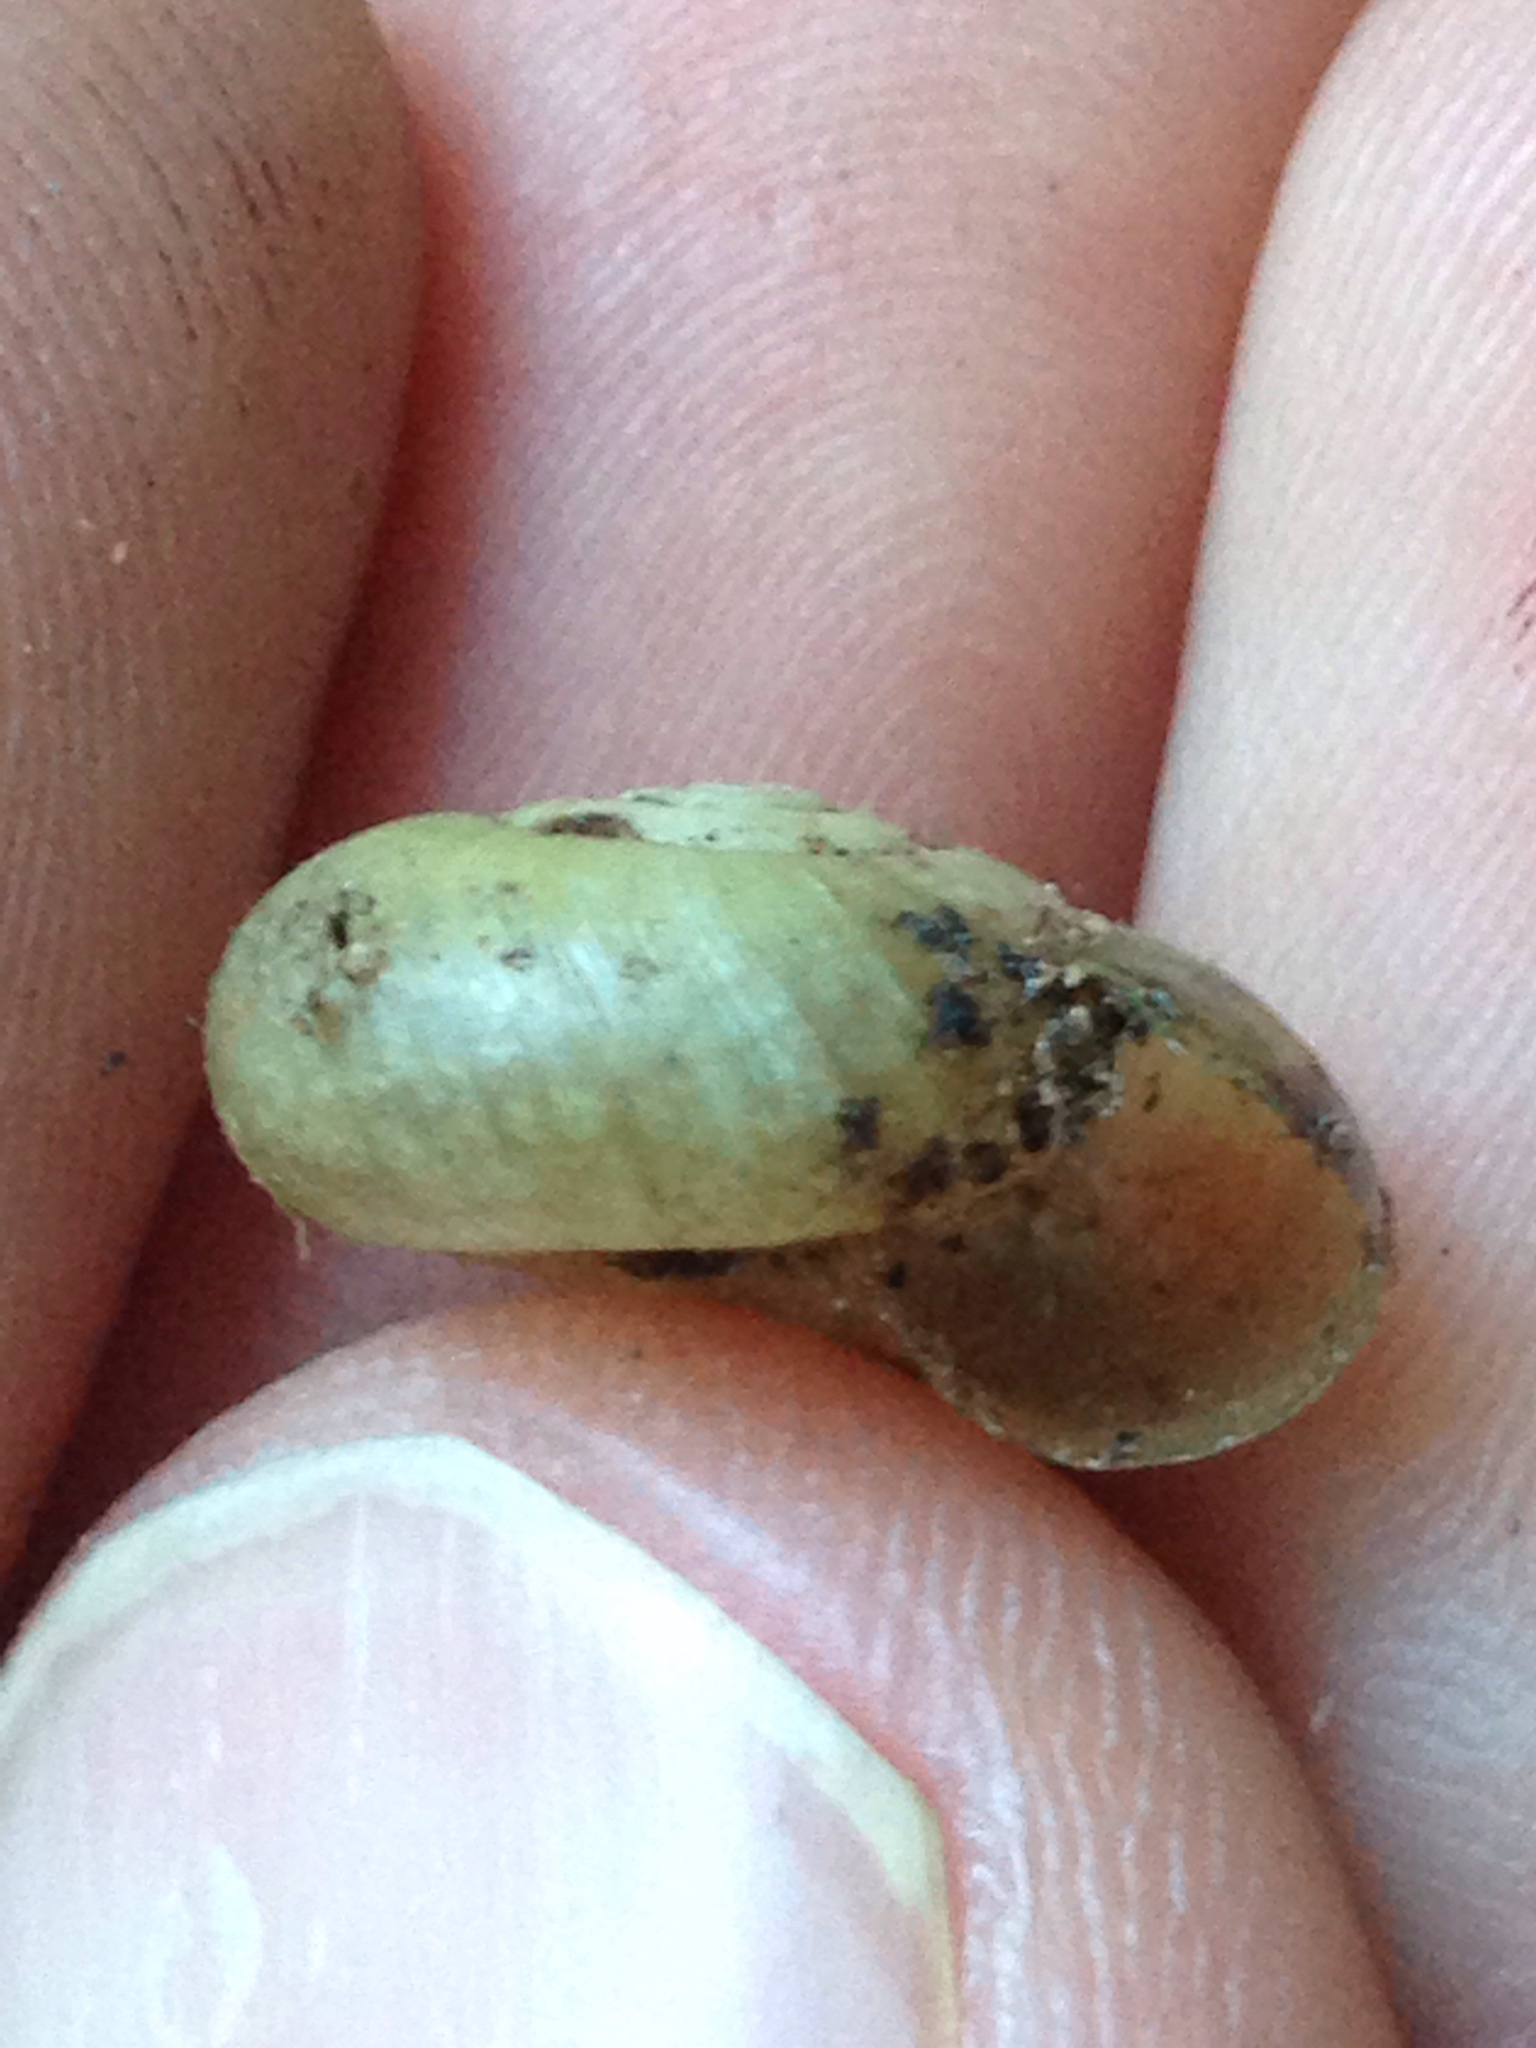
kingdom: Animalia
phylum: Mollusca
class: Gastropoda
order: Stylommatophora
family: Haplotrematidae
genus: Haplotrema
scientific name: Haplotrema minimum
